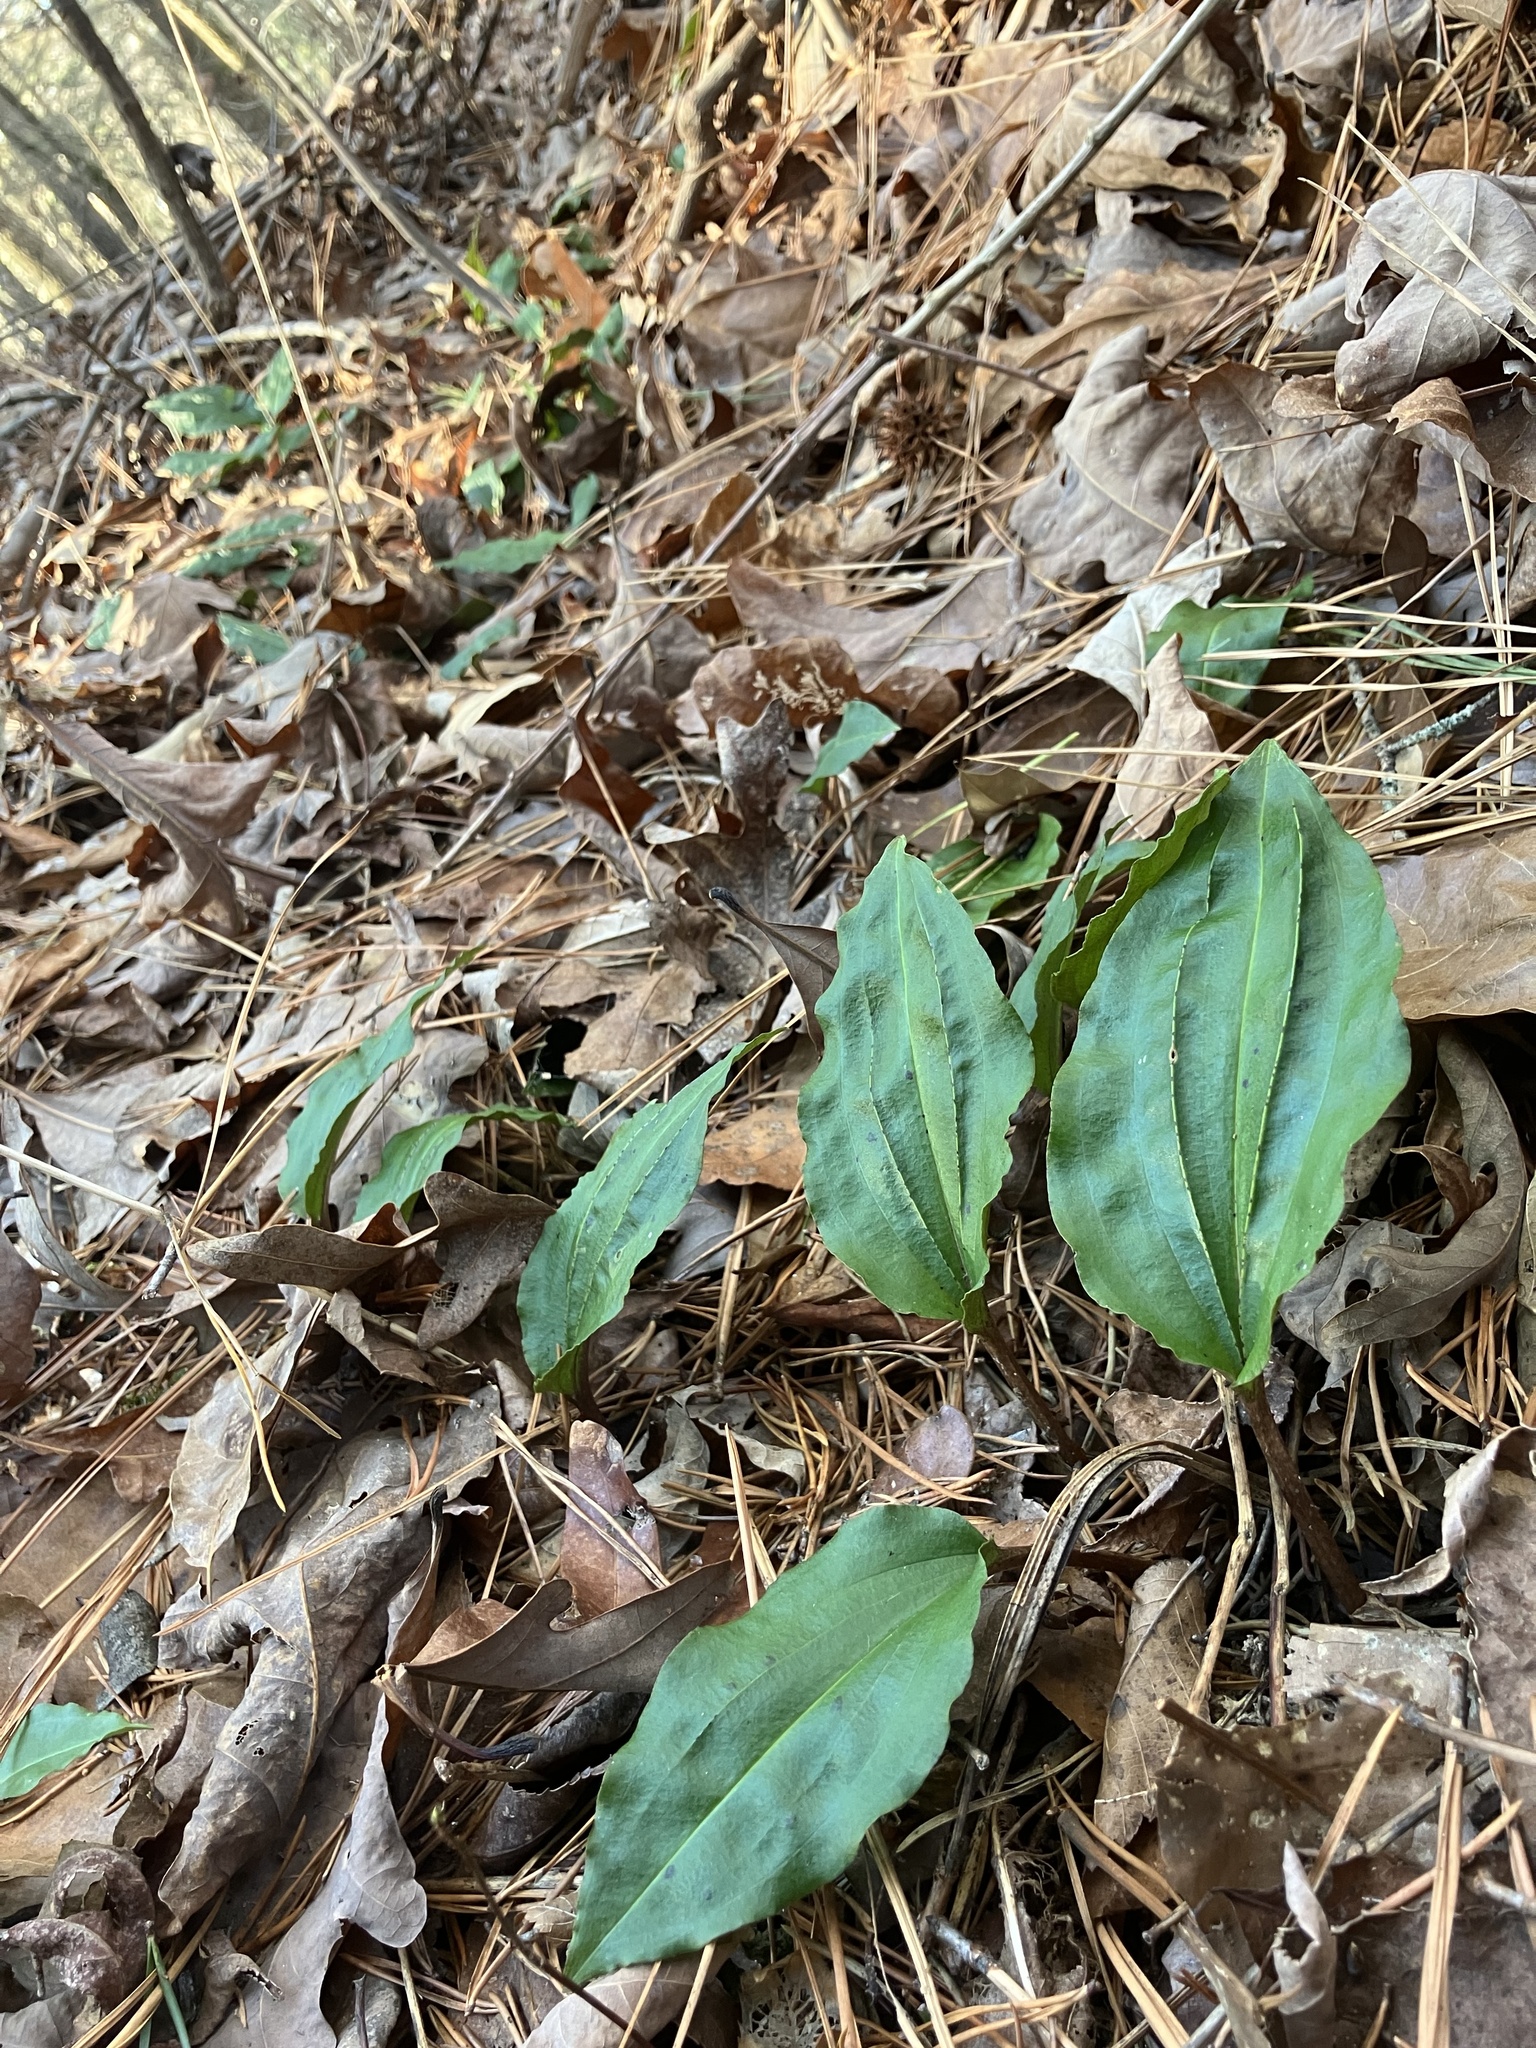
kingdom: Plantae
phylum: Tracheophyta
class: Liliopsida
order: Asparagales
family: Orchidaceae
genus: Tipularia
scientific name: Tipularia discolor
